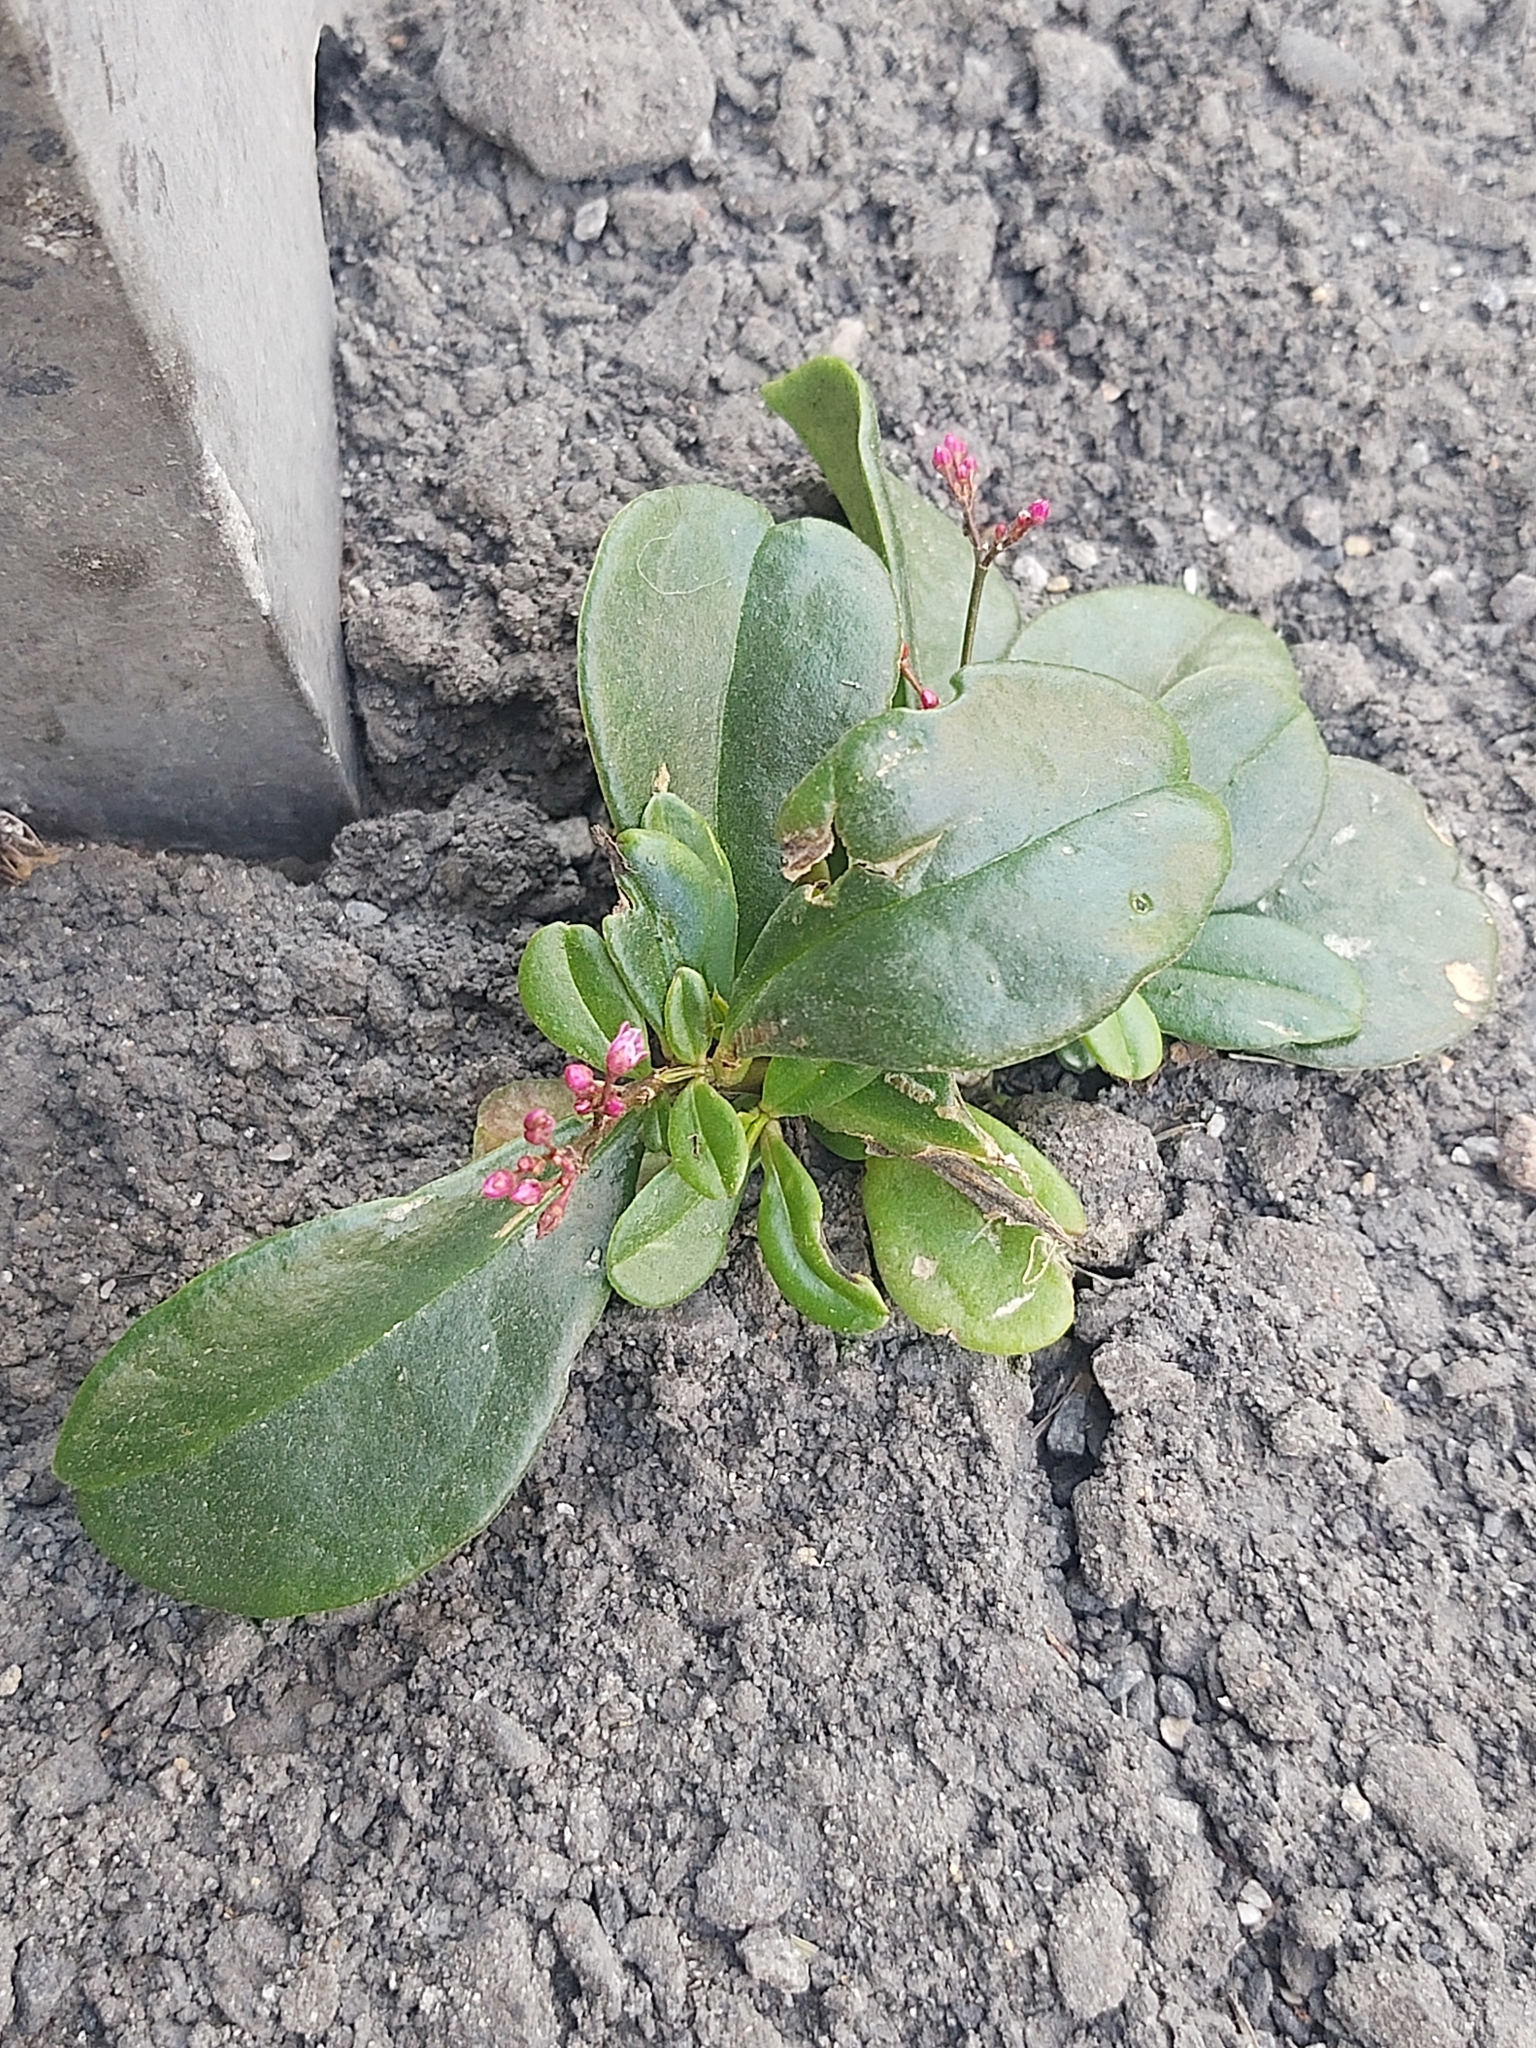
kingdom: Plantae
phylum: Tracheophyta
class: Magnoliopsida
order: Caryophyllales
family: Talinaceae
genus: Talinum
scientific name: Talinum paniculatum
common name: Jewels of opar
